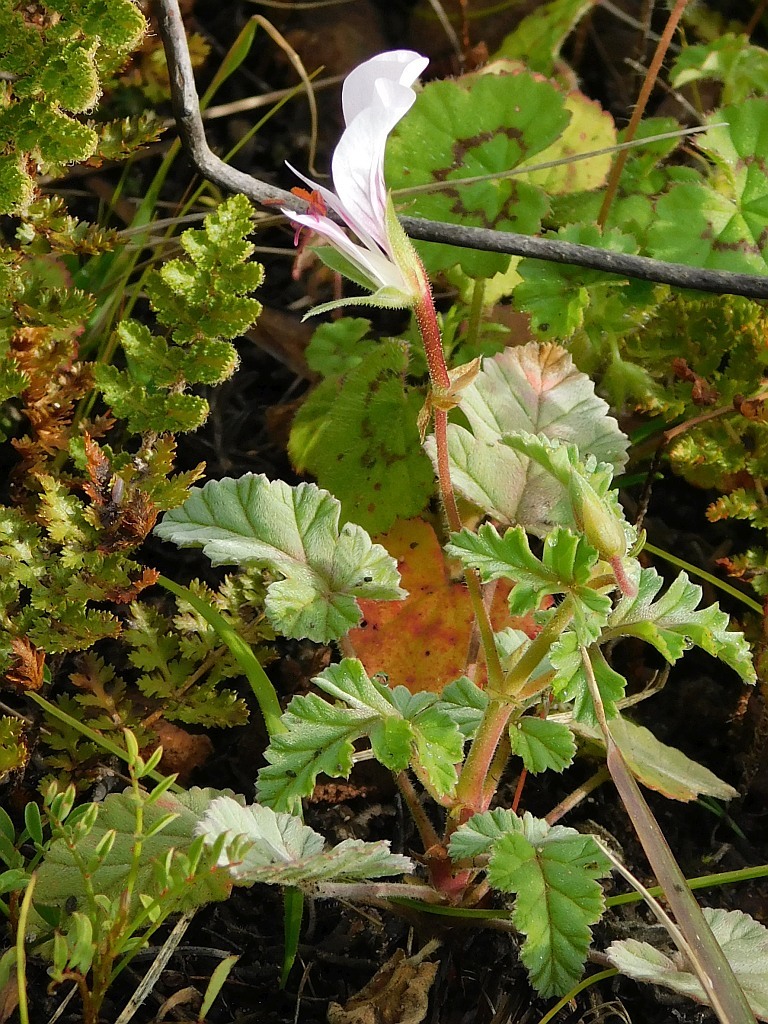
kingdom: Plantae
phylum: Tracheophyta
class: Magnoliopsida
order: Geraniales
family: Geraniaceae
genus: Pelargonium
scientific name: Pelargonium candicans
